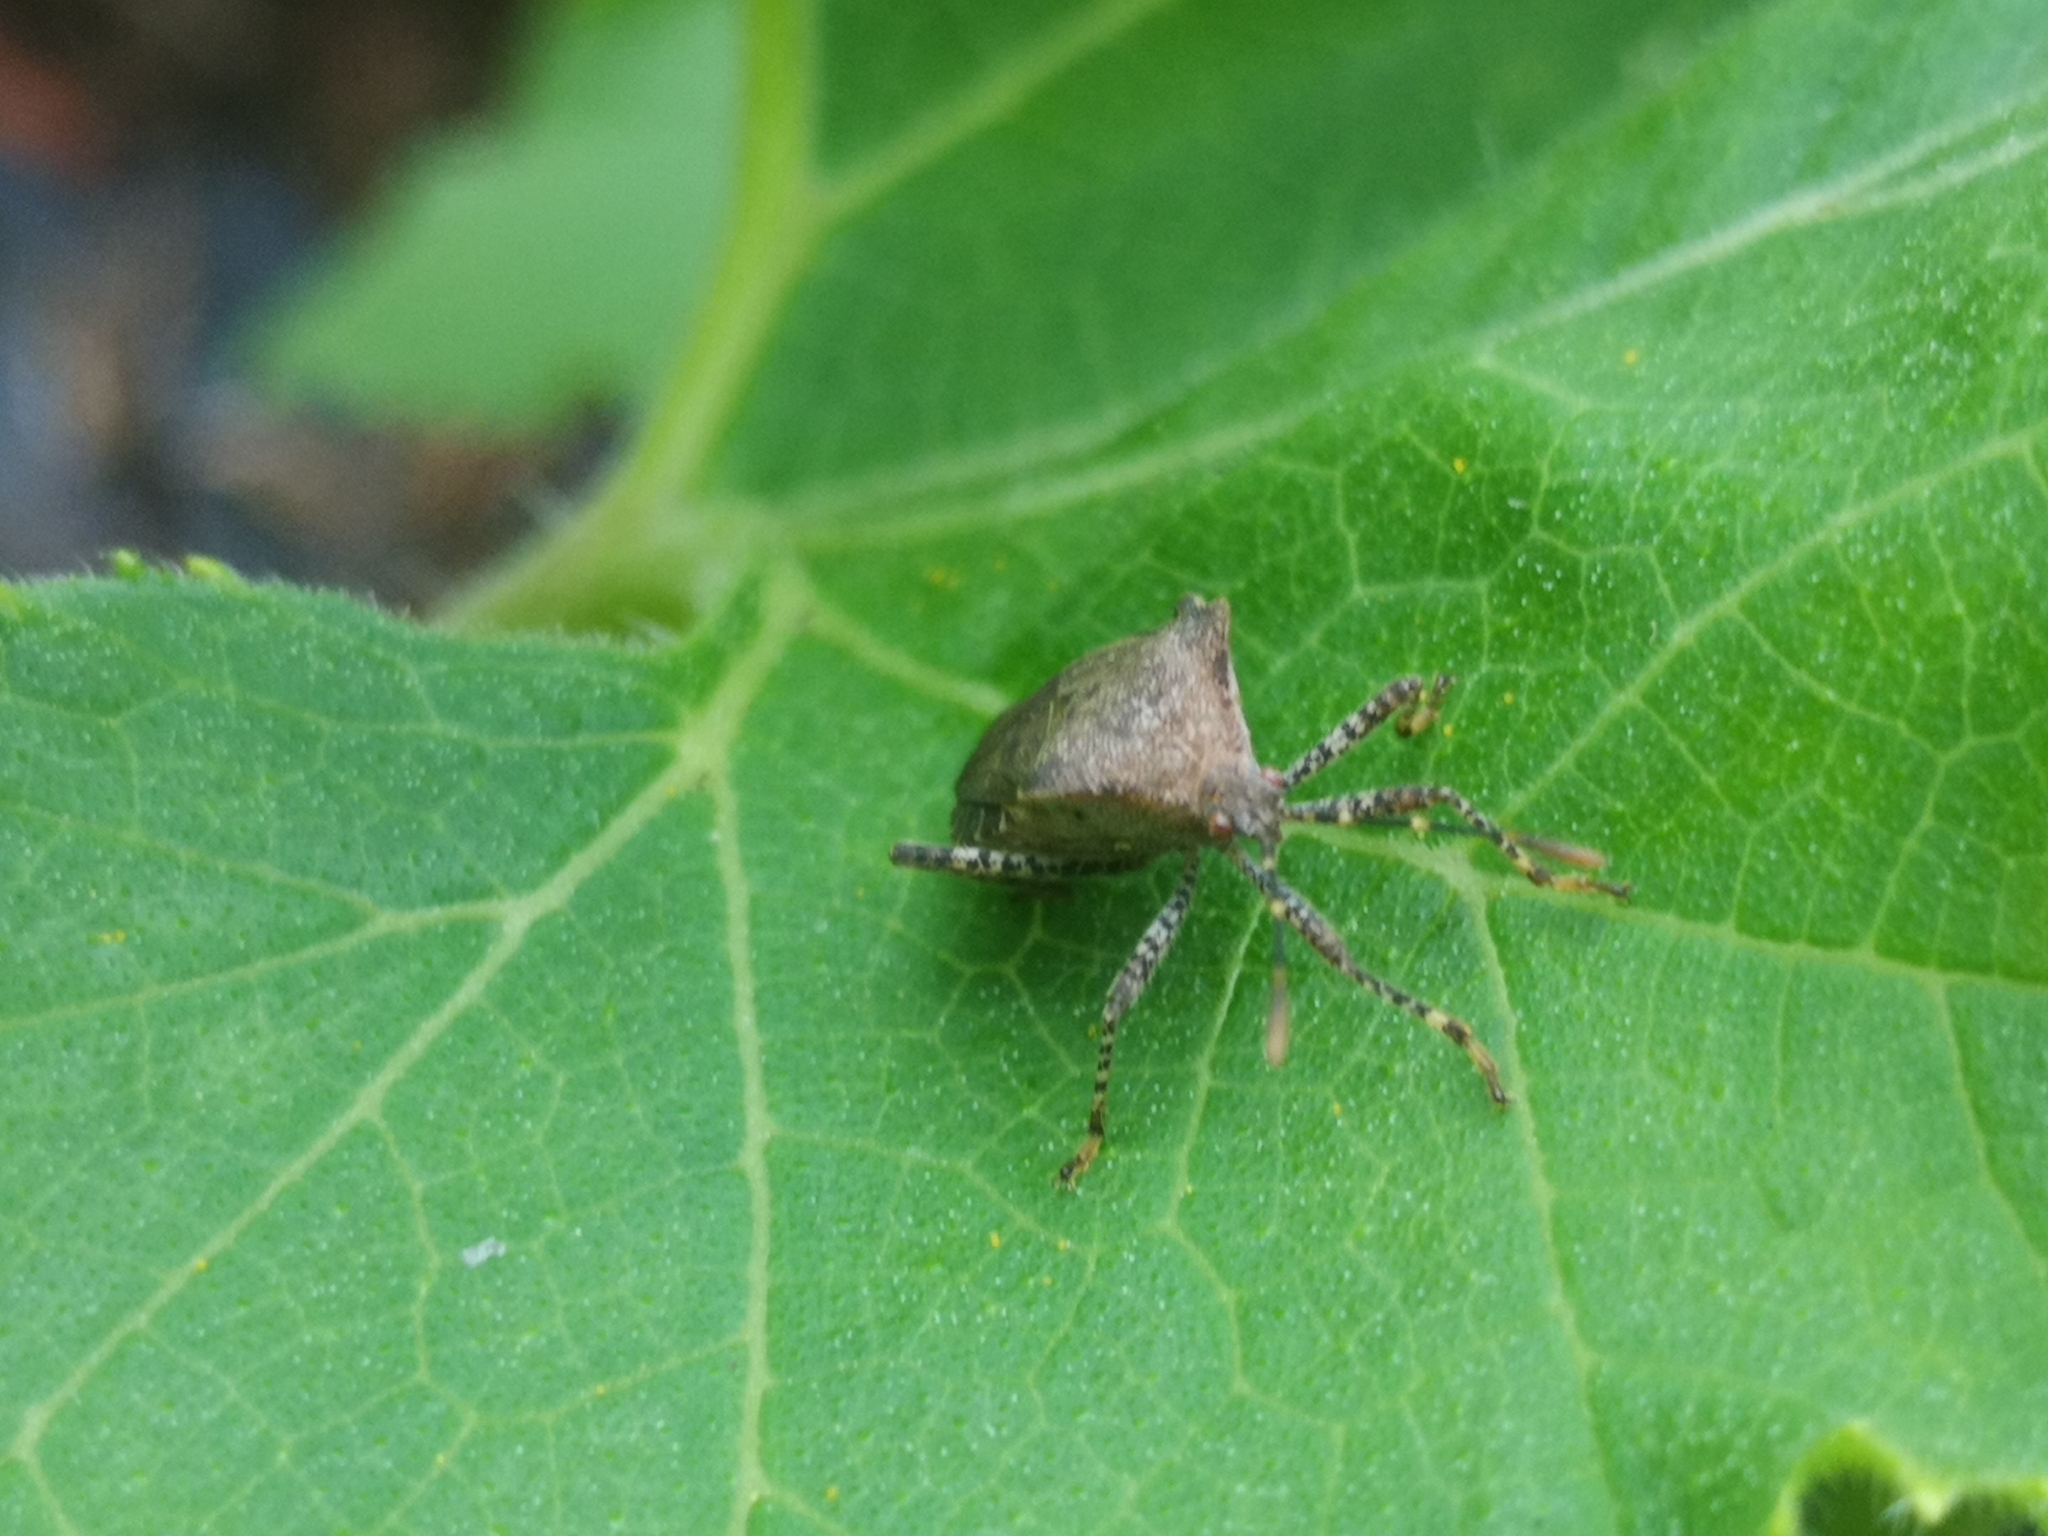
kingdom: Animalia
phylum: Arthropoda
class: Insecta
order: Hemiptera
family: Coreidae
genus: Anasa
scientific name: Anasa armigera
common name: Horned squash bug
